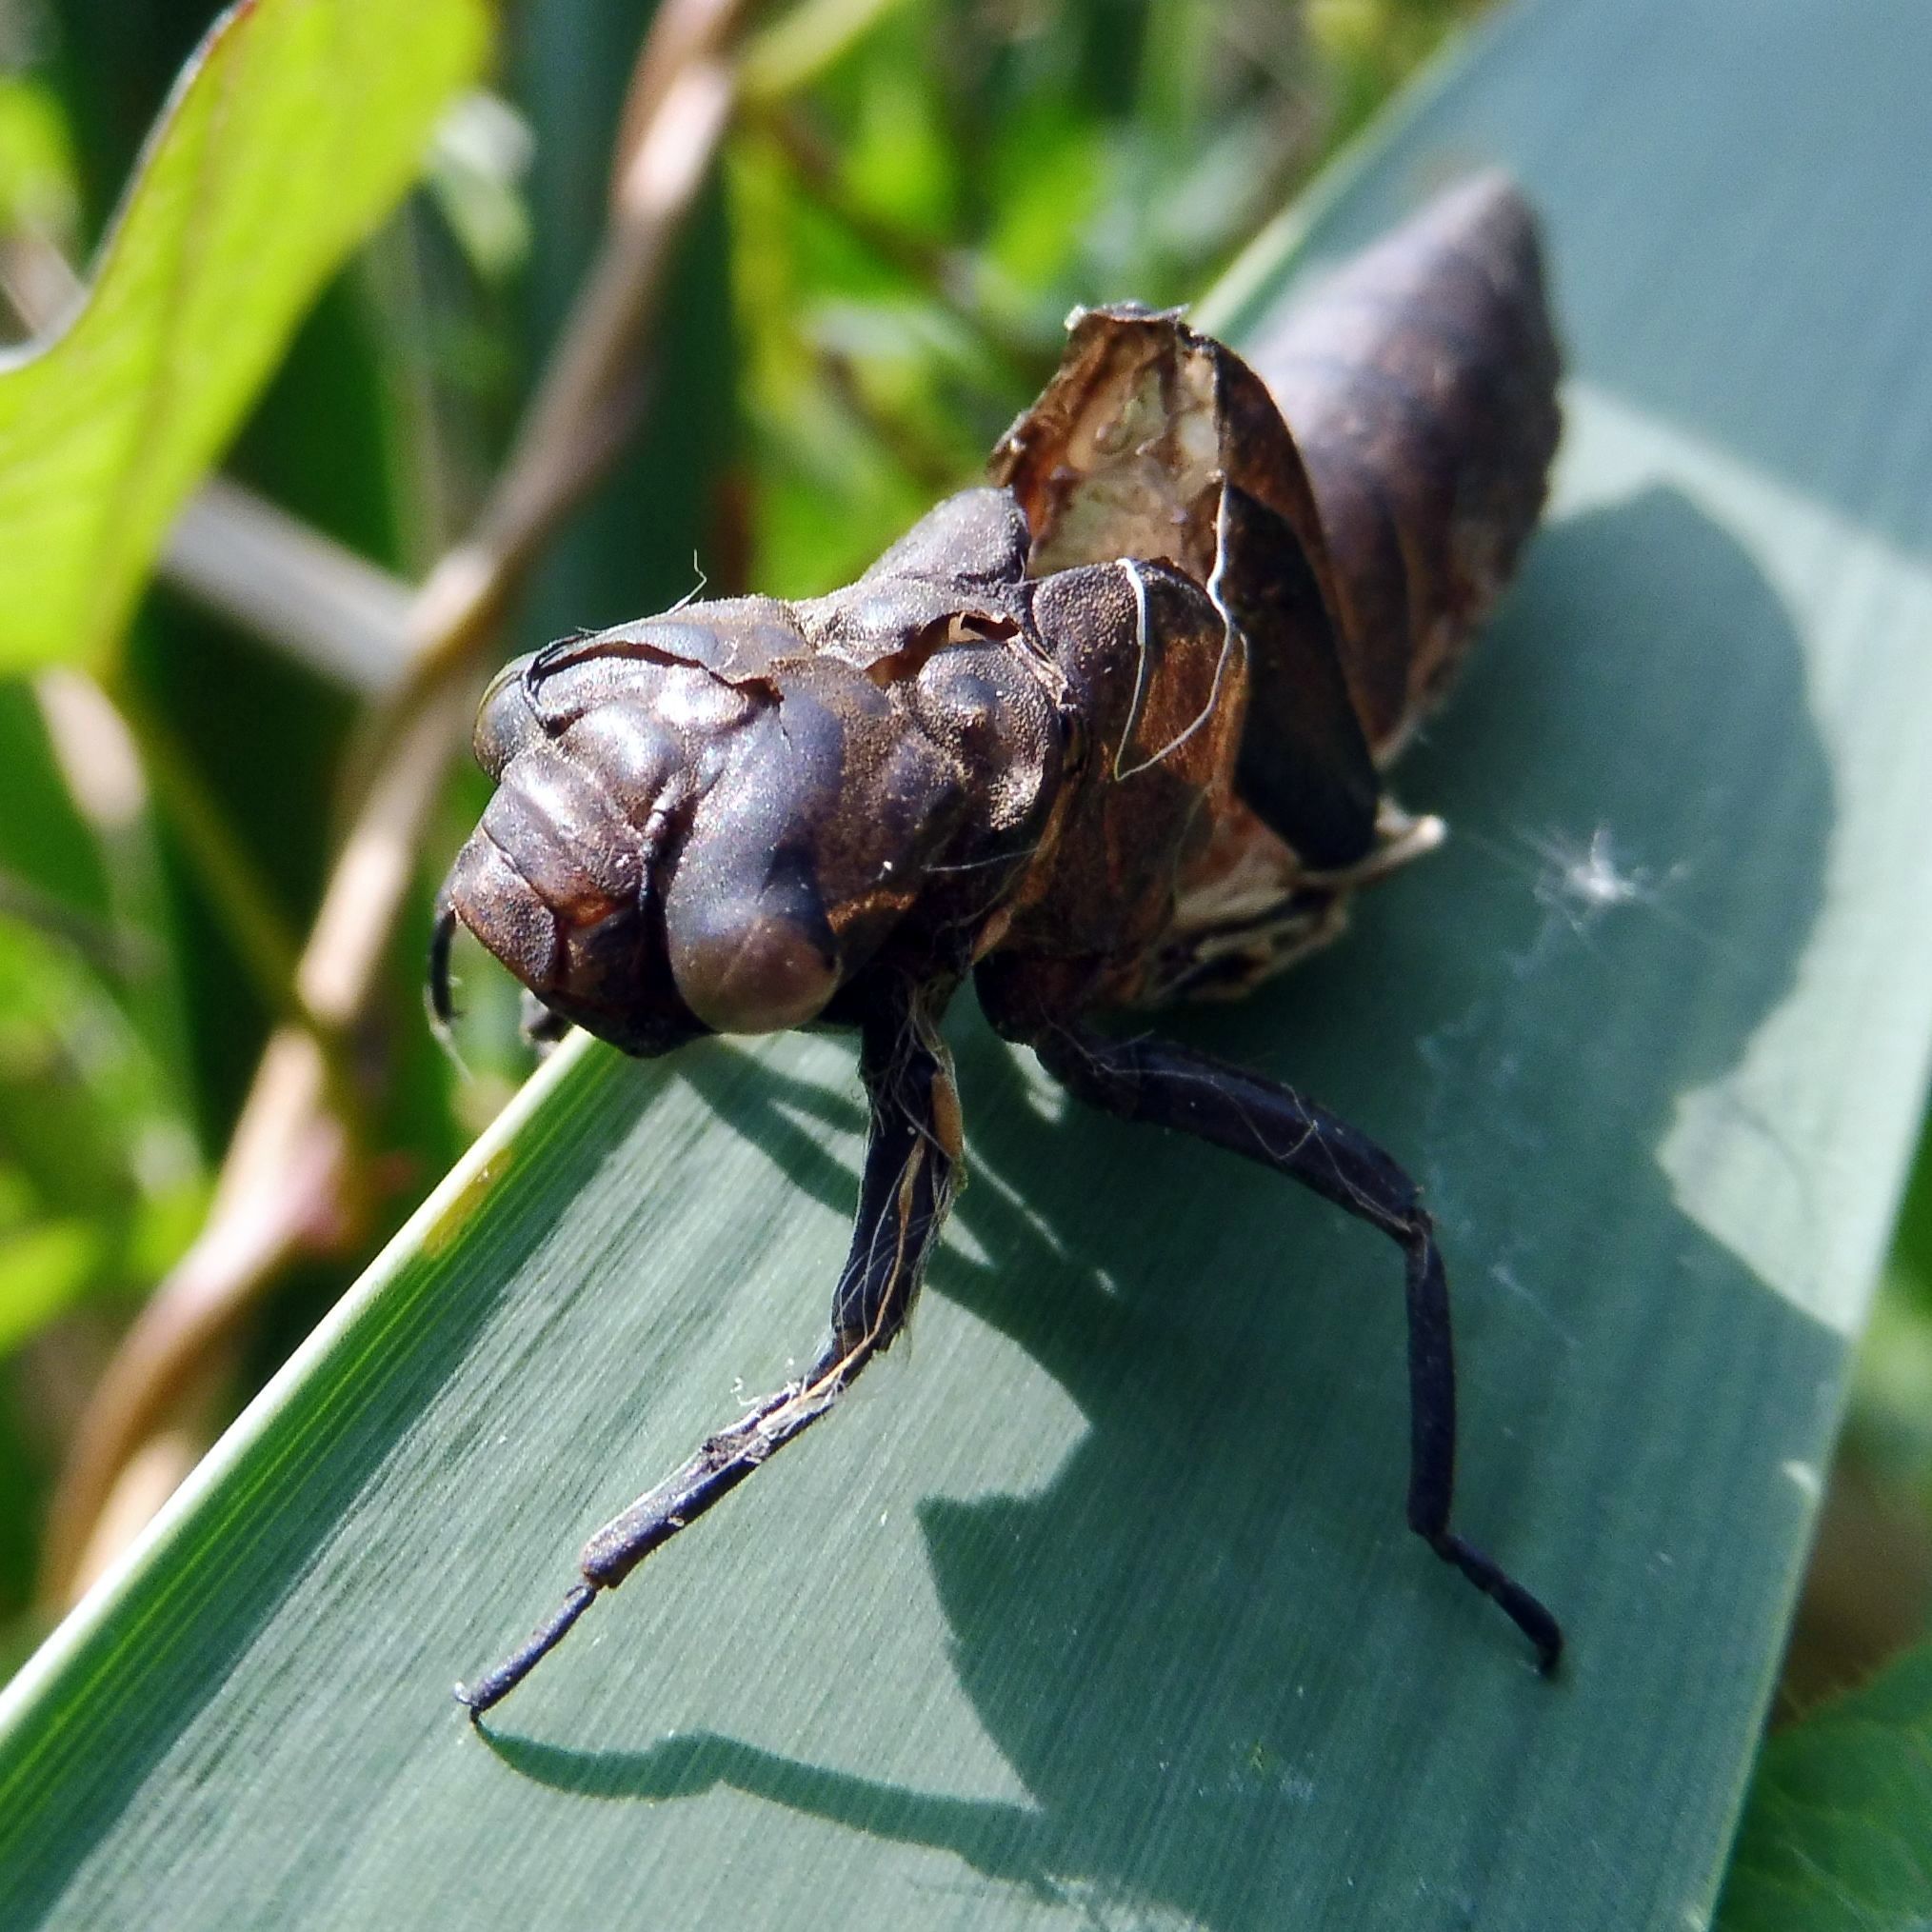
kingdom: Animalia
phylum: Arthropoda
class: Insecta
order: Odonata
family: Aeshnidae
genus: Brachytron
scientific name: Brachytron pratense
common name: Hairy hawker
